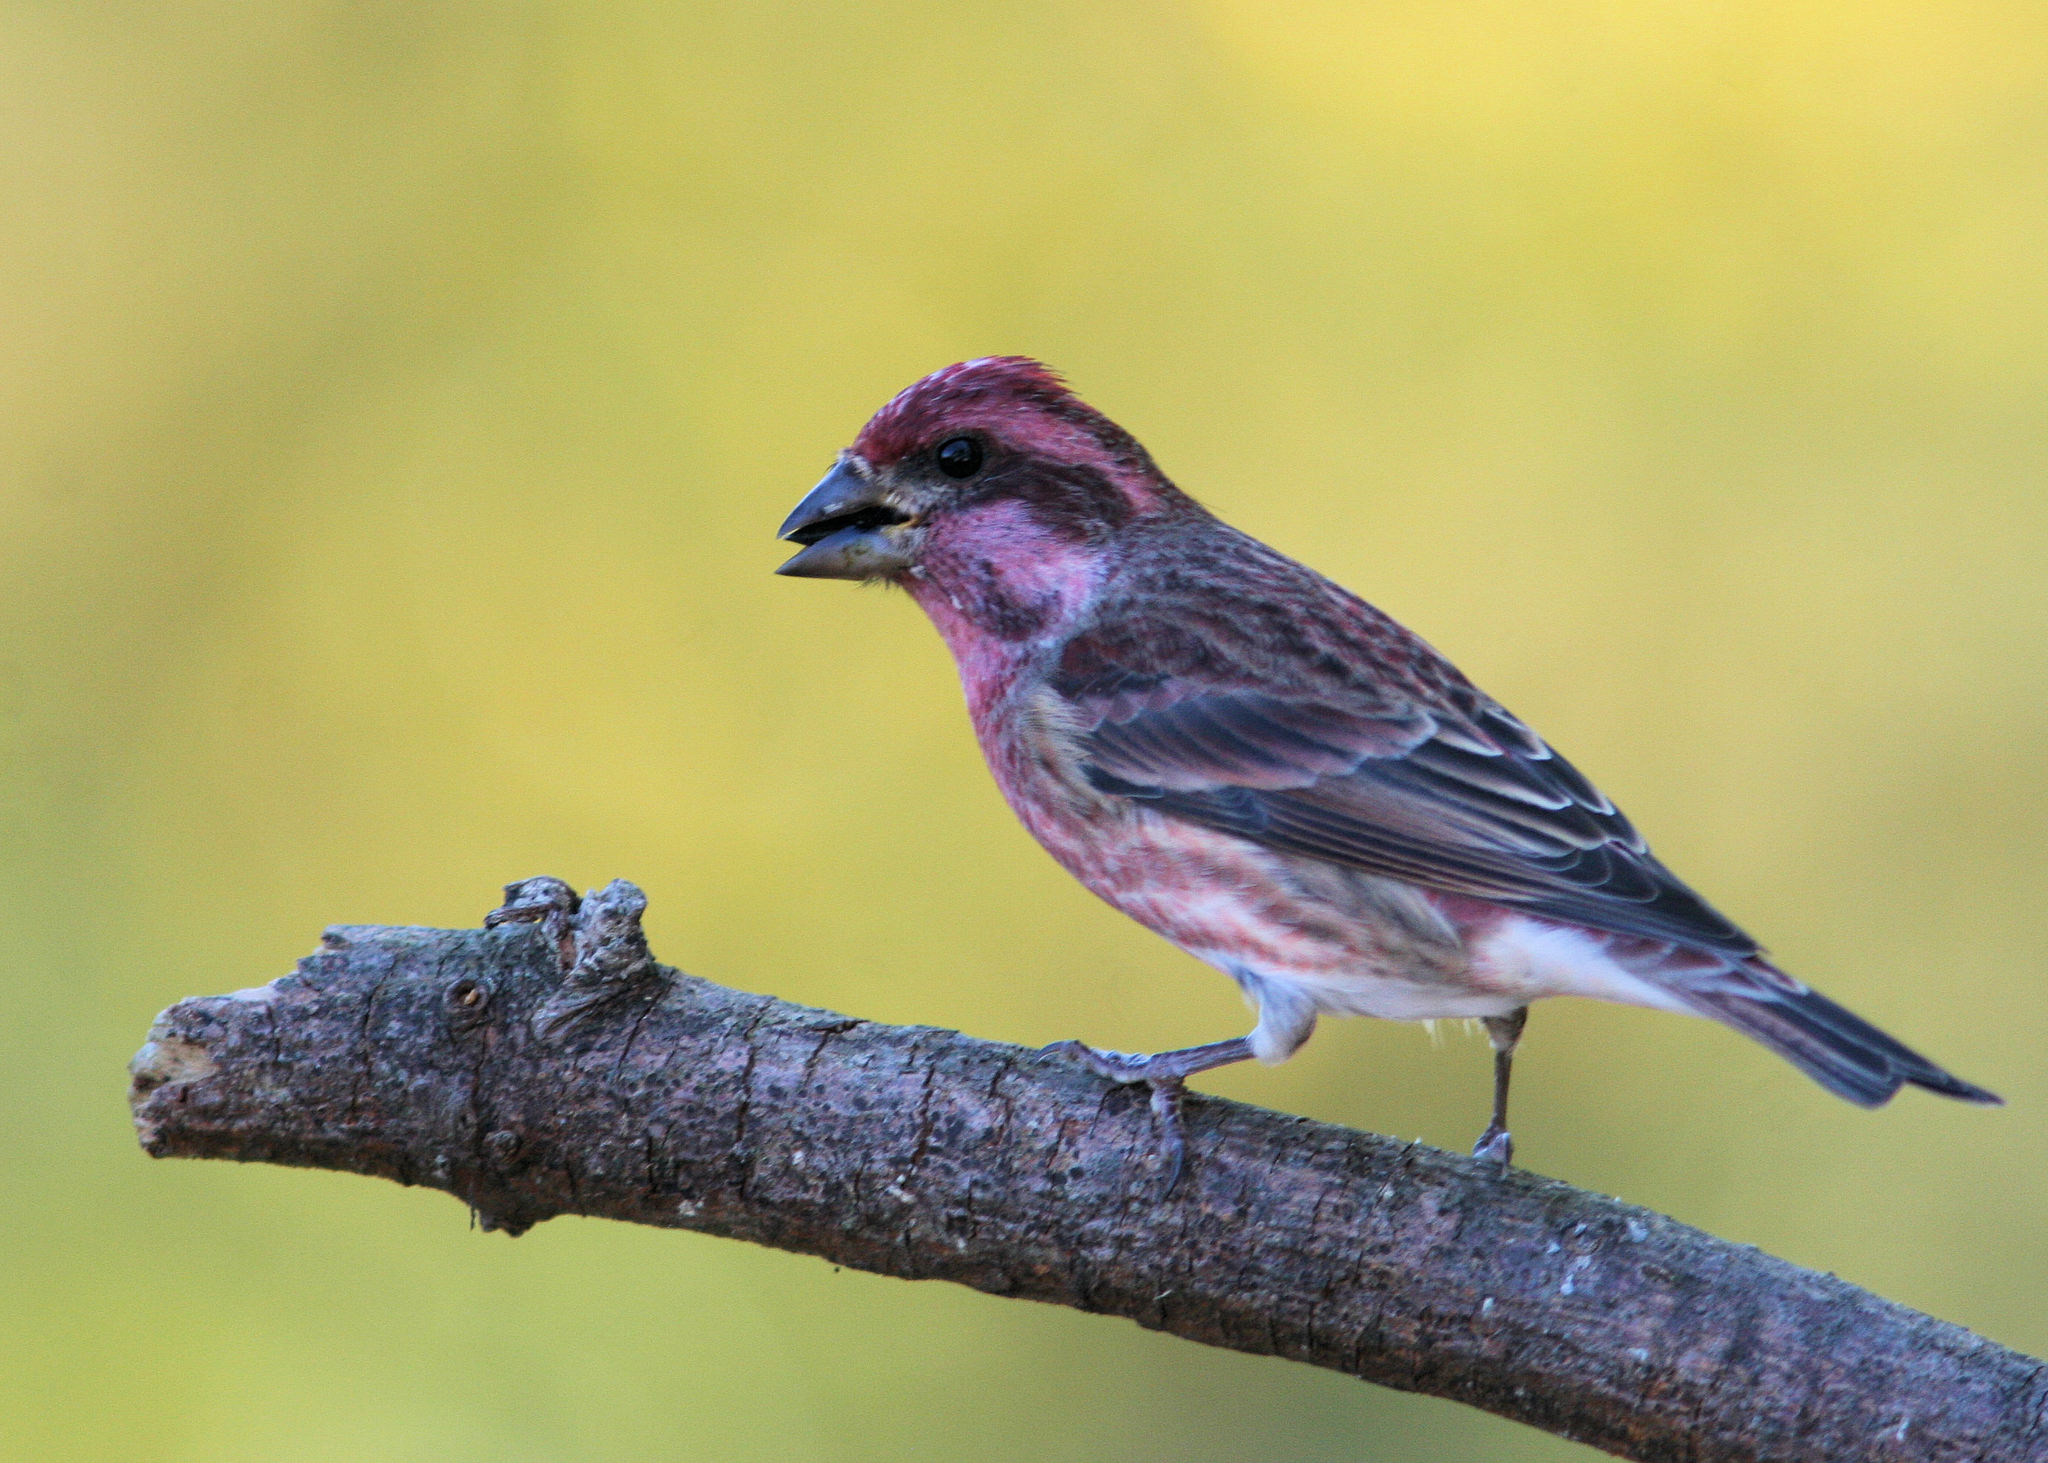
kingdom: Animalia
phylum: Chordata
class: Aves
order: Passeriformes
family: Fringillidae
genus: Haemorhous
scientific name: Haemorhous purpureus
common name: Purple finch
